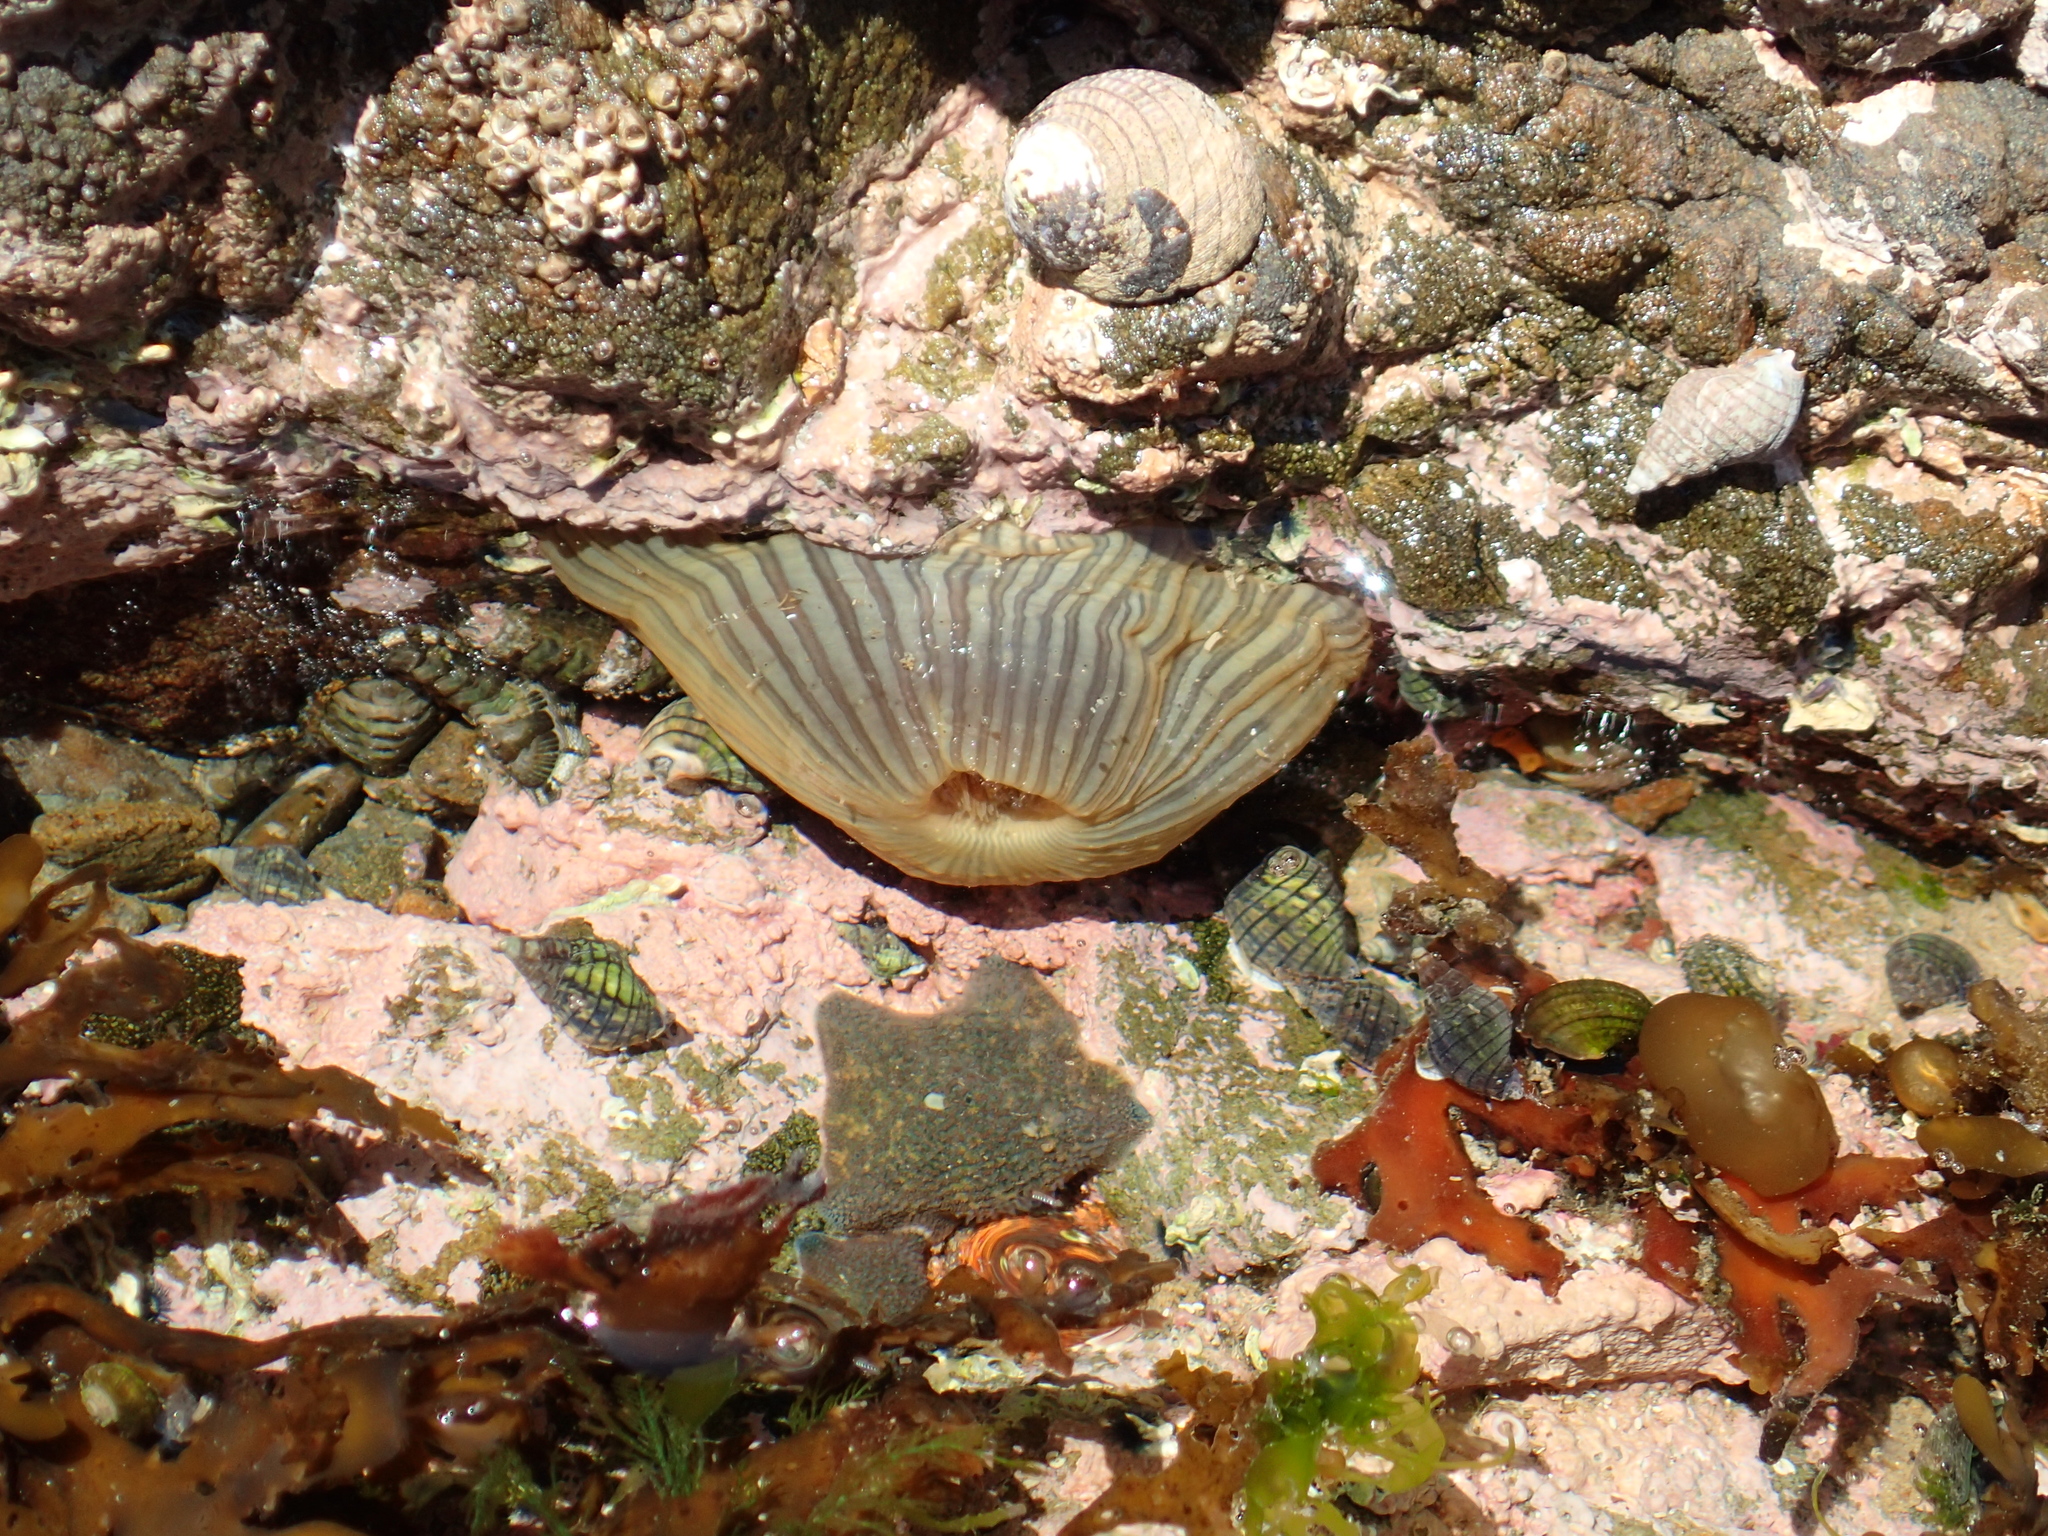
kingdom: Animalia
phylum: Cnidaria
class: Anthozoa
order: Actiniaria
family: Diadumenidae
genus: Diadumene
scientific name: Diadumene neozelanica
